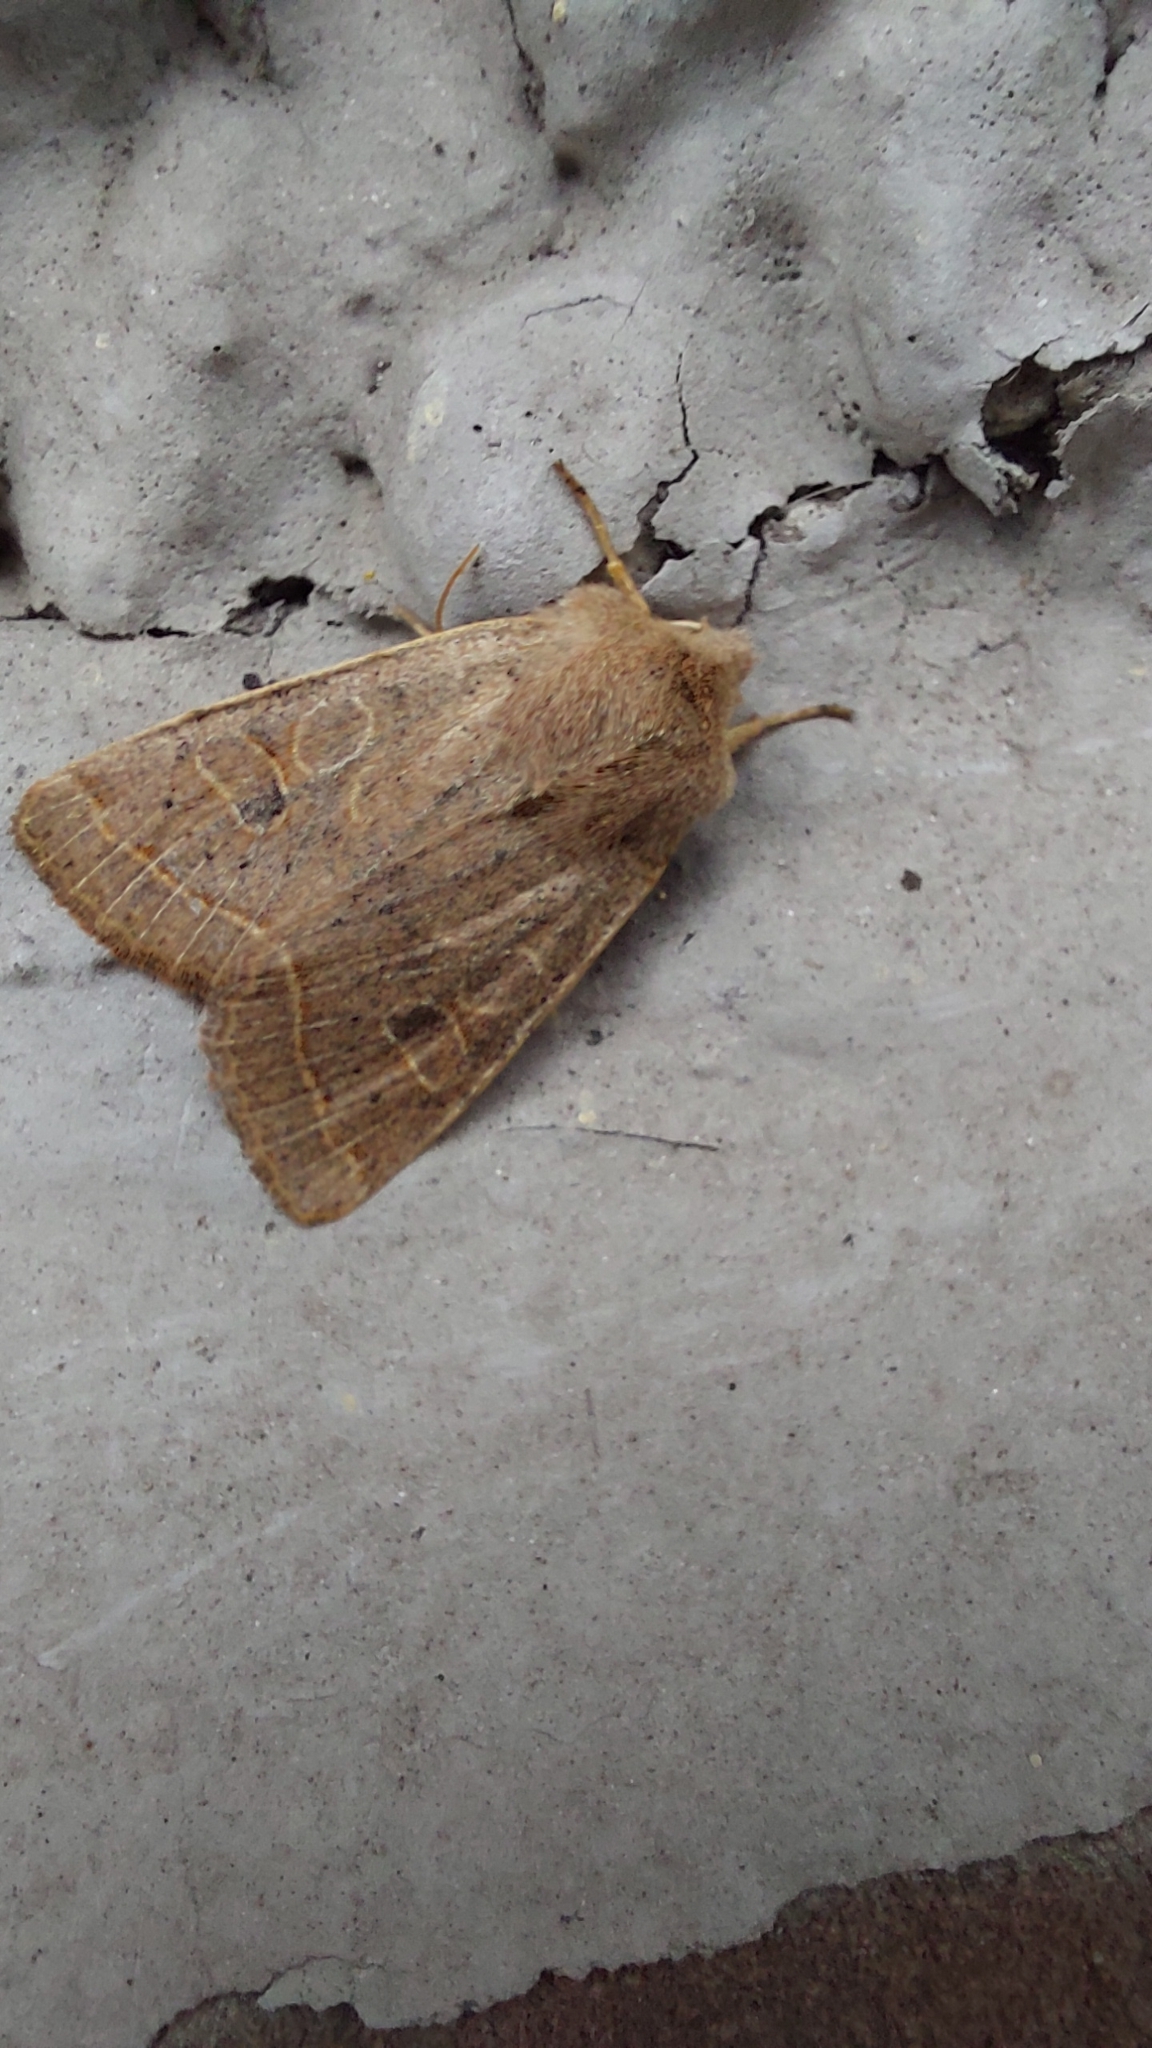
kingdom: Animalia
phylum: Arthropoda
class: Insecta
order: Lepidoptera
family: Noctuidae
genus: Orthosia
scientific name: Orthosia cerasi
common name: Common quaker
